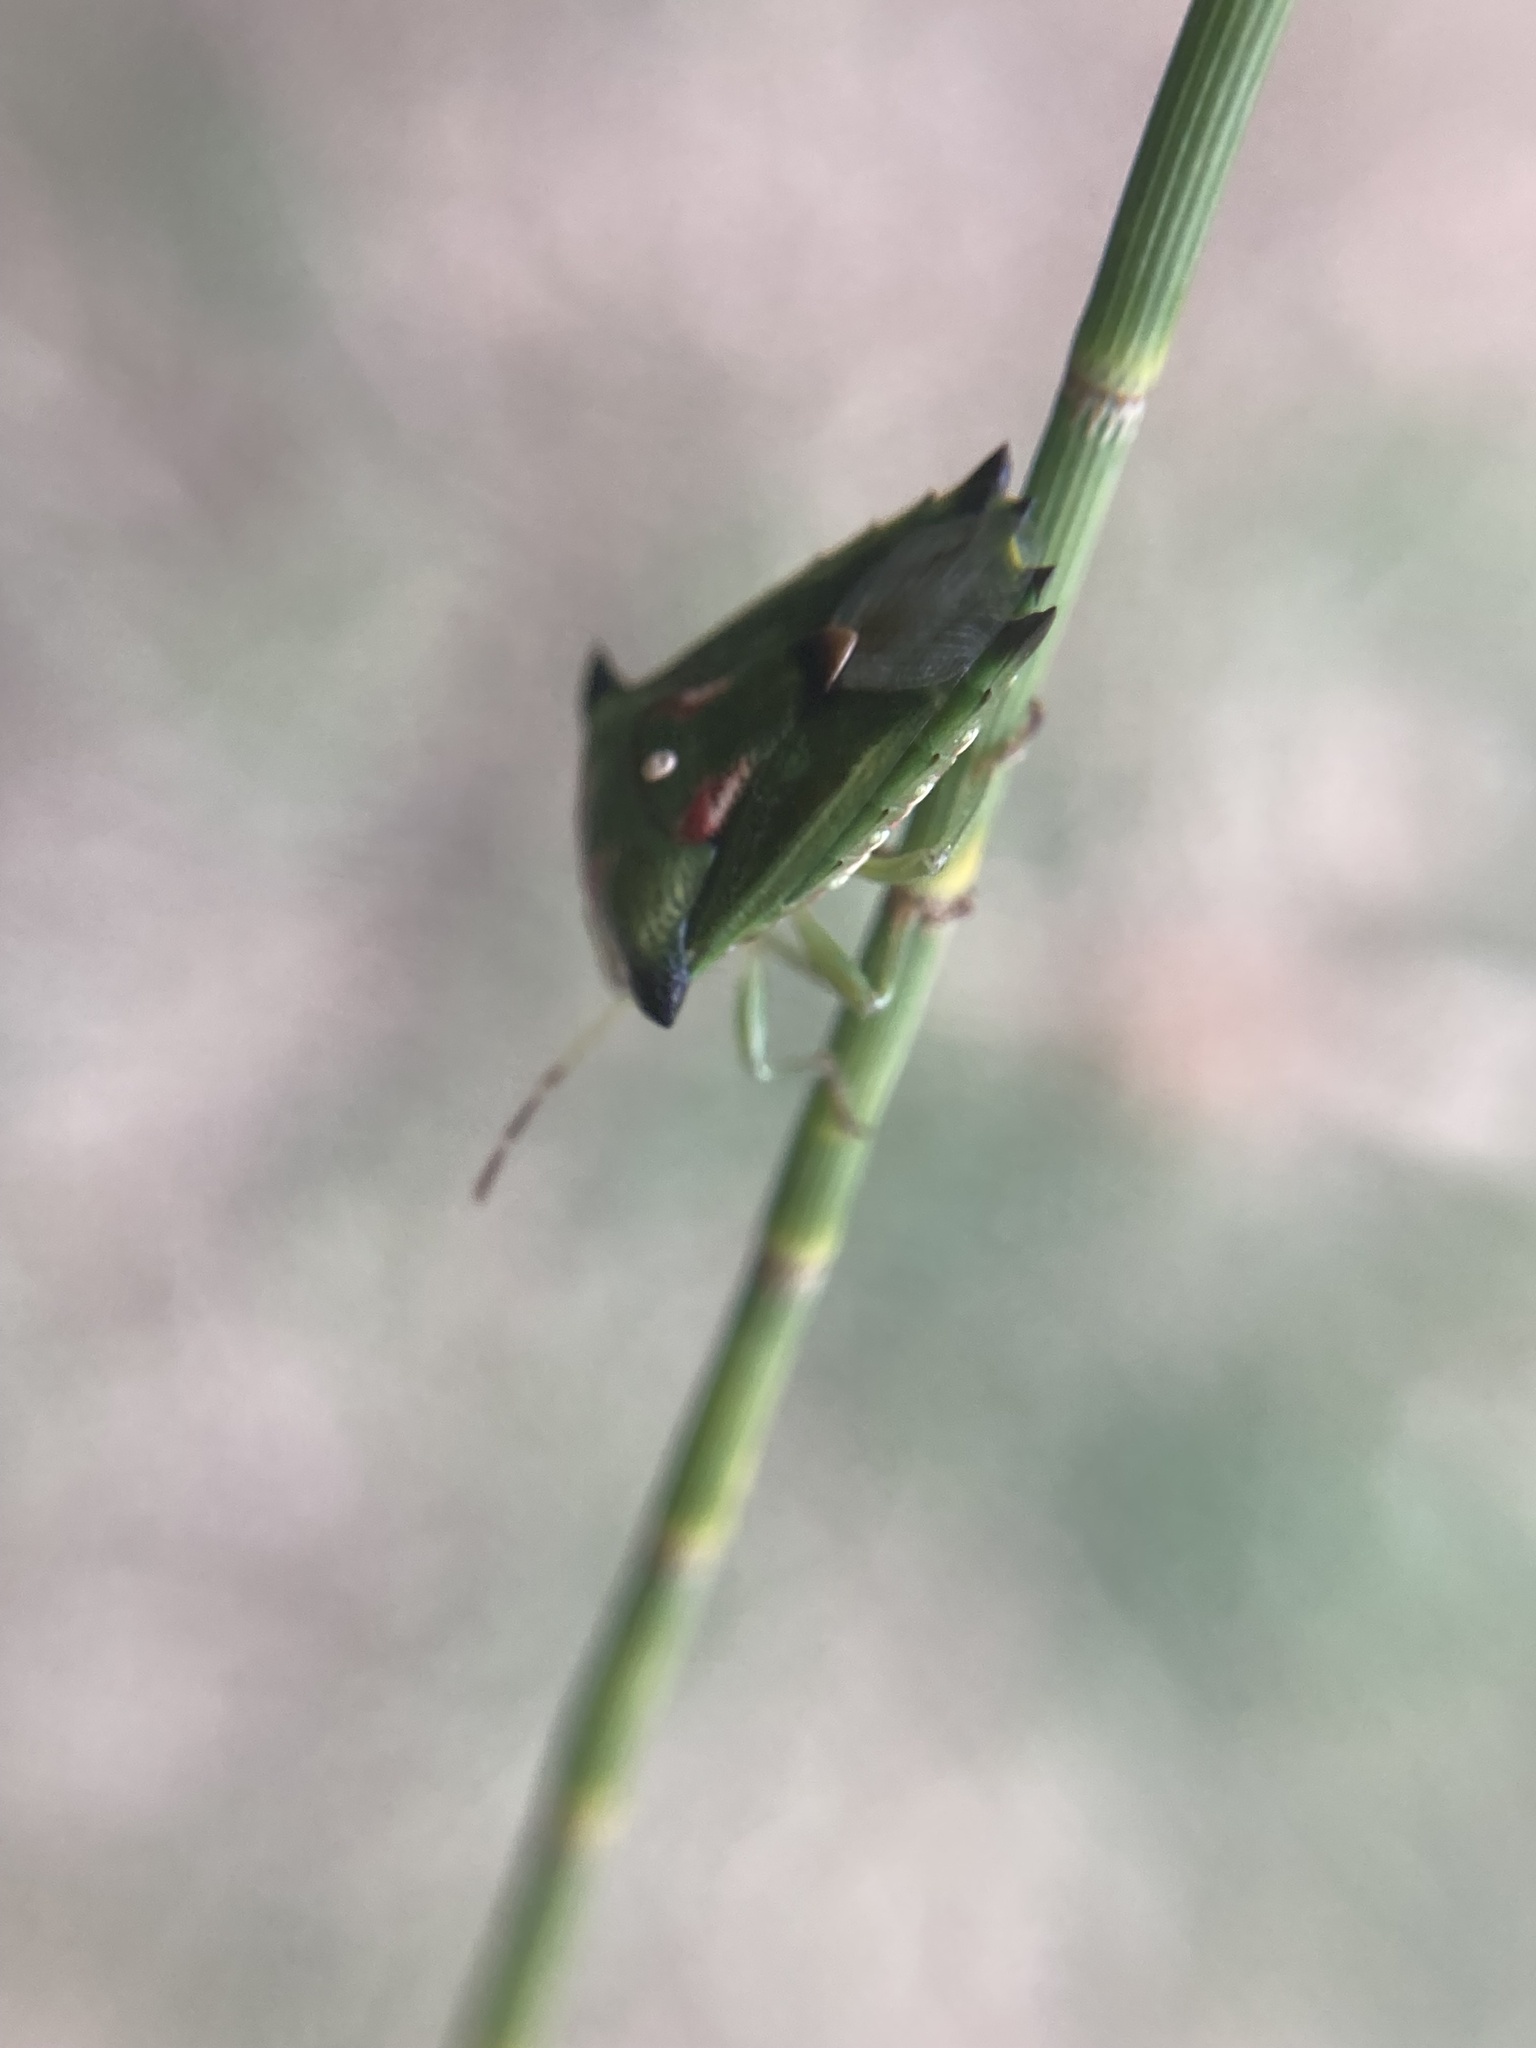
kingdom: Animalia
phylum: Arthropoda
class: Insecta
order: Hemiptera
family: Pentatomidae
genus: Morna
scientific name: Morna
